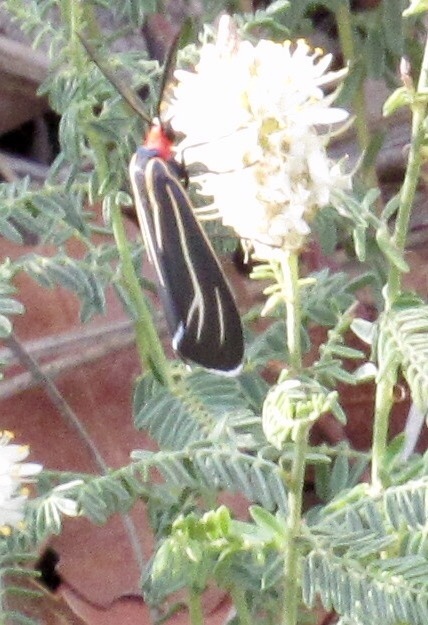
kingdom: Animalia
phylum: Arthropoda
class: Insecta
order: Lepidoptera
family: Erebidae
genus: Ctenucha
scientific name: Ctenucha venosa
